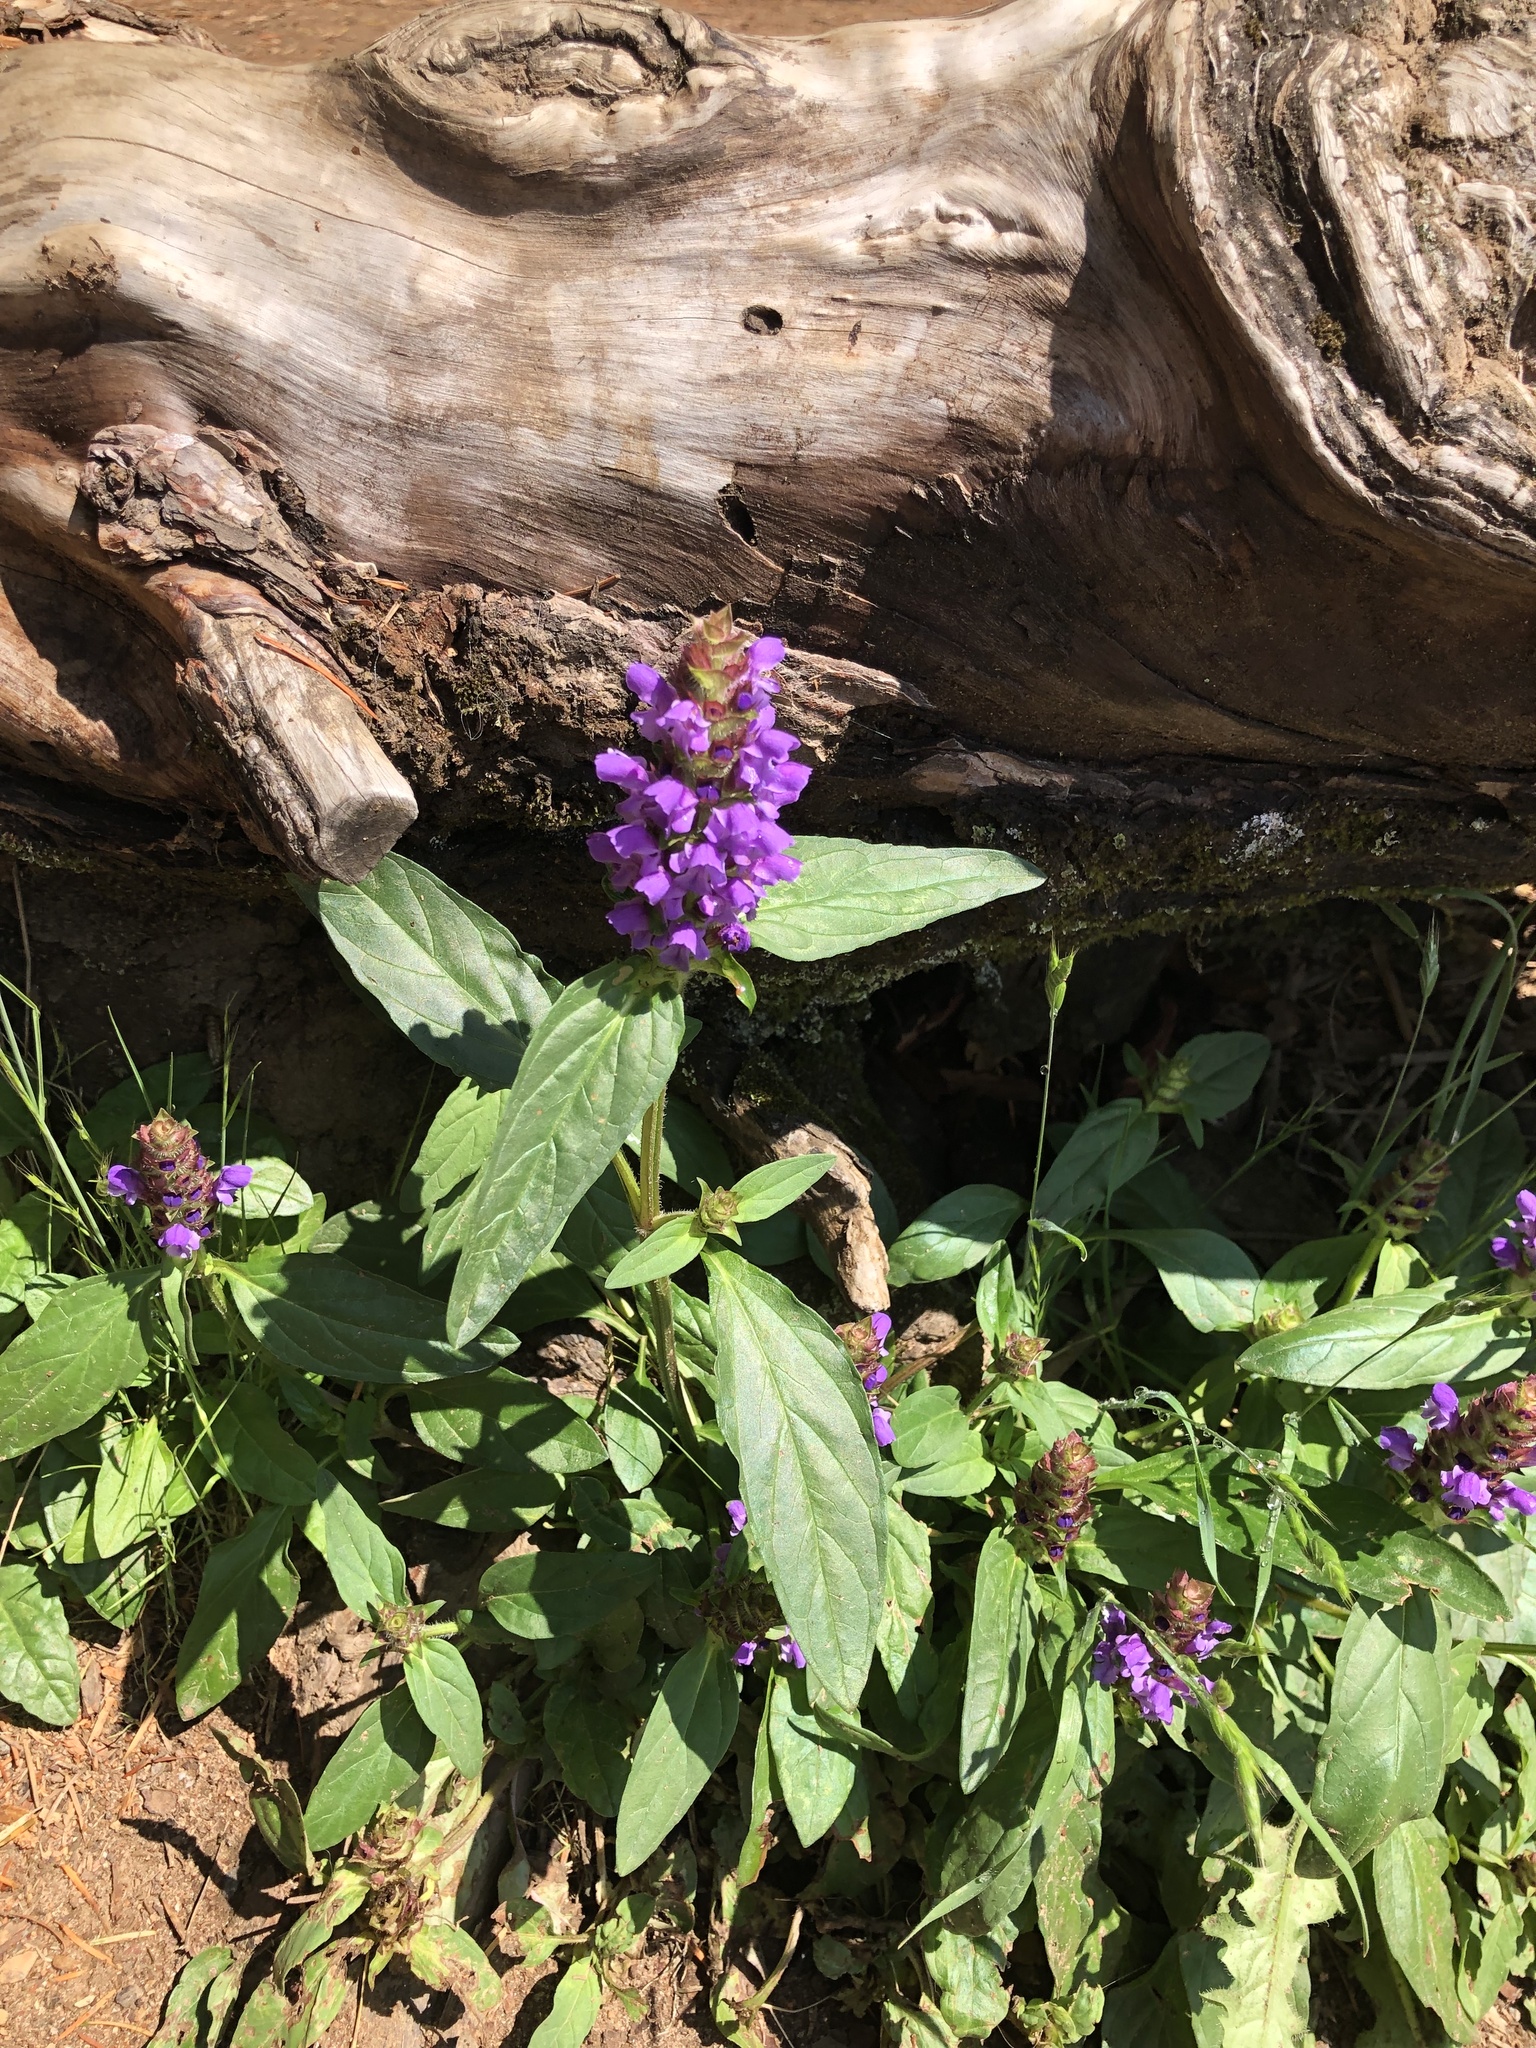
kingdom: Plantae
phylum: Tracheophyta
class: Magnoliopsida
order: Lamiales
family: Lamiaceae
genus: Prunella
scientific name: Prunella vulgaris
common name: Heal-all
